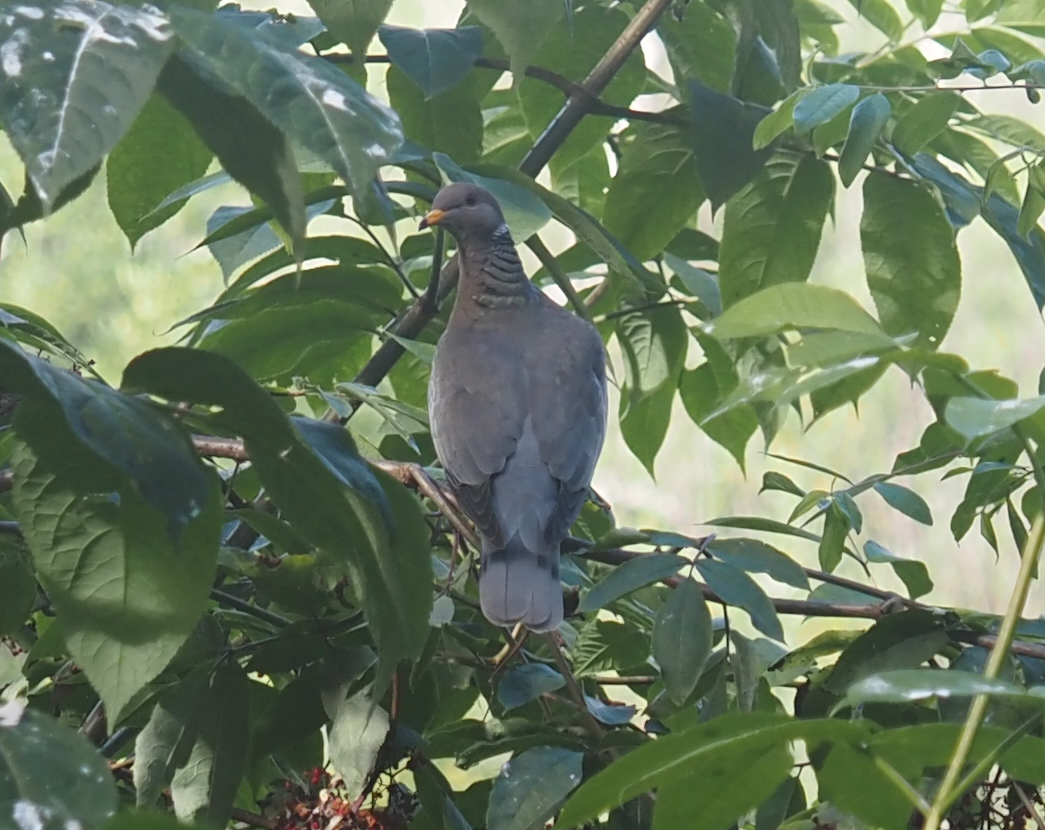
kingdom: Animalia
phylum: Chordata
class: Aves
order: Columbiformes
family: Columbidae
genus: Patagioenas
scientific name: Patagioenas fasciata
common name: Band-tailed pigeon
